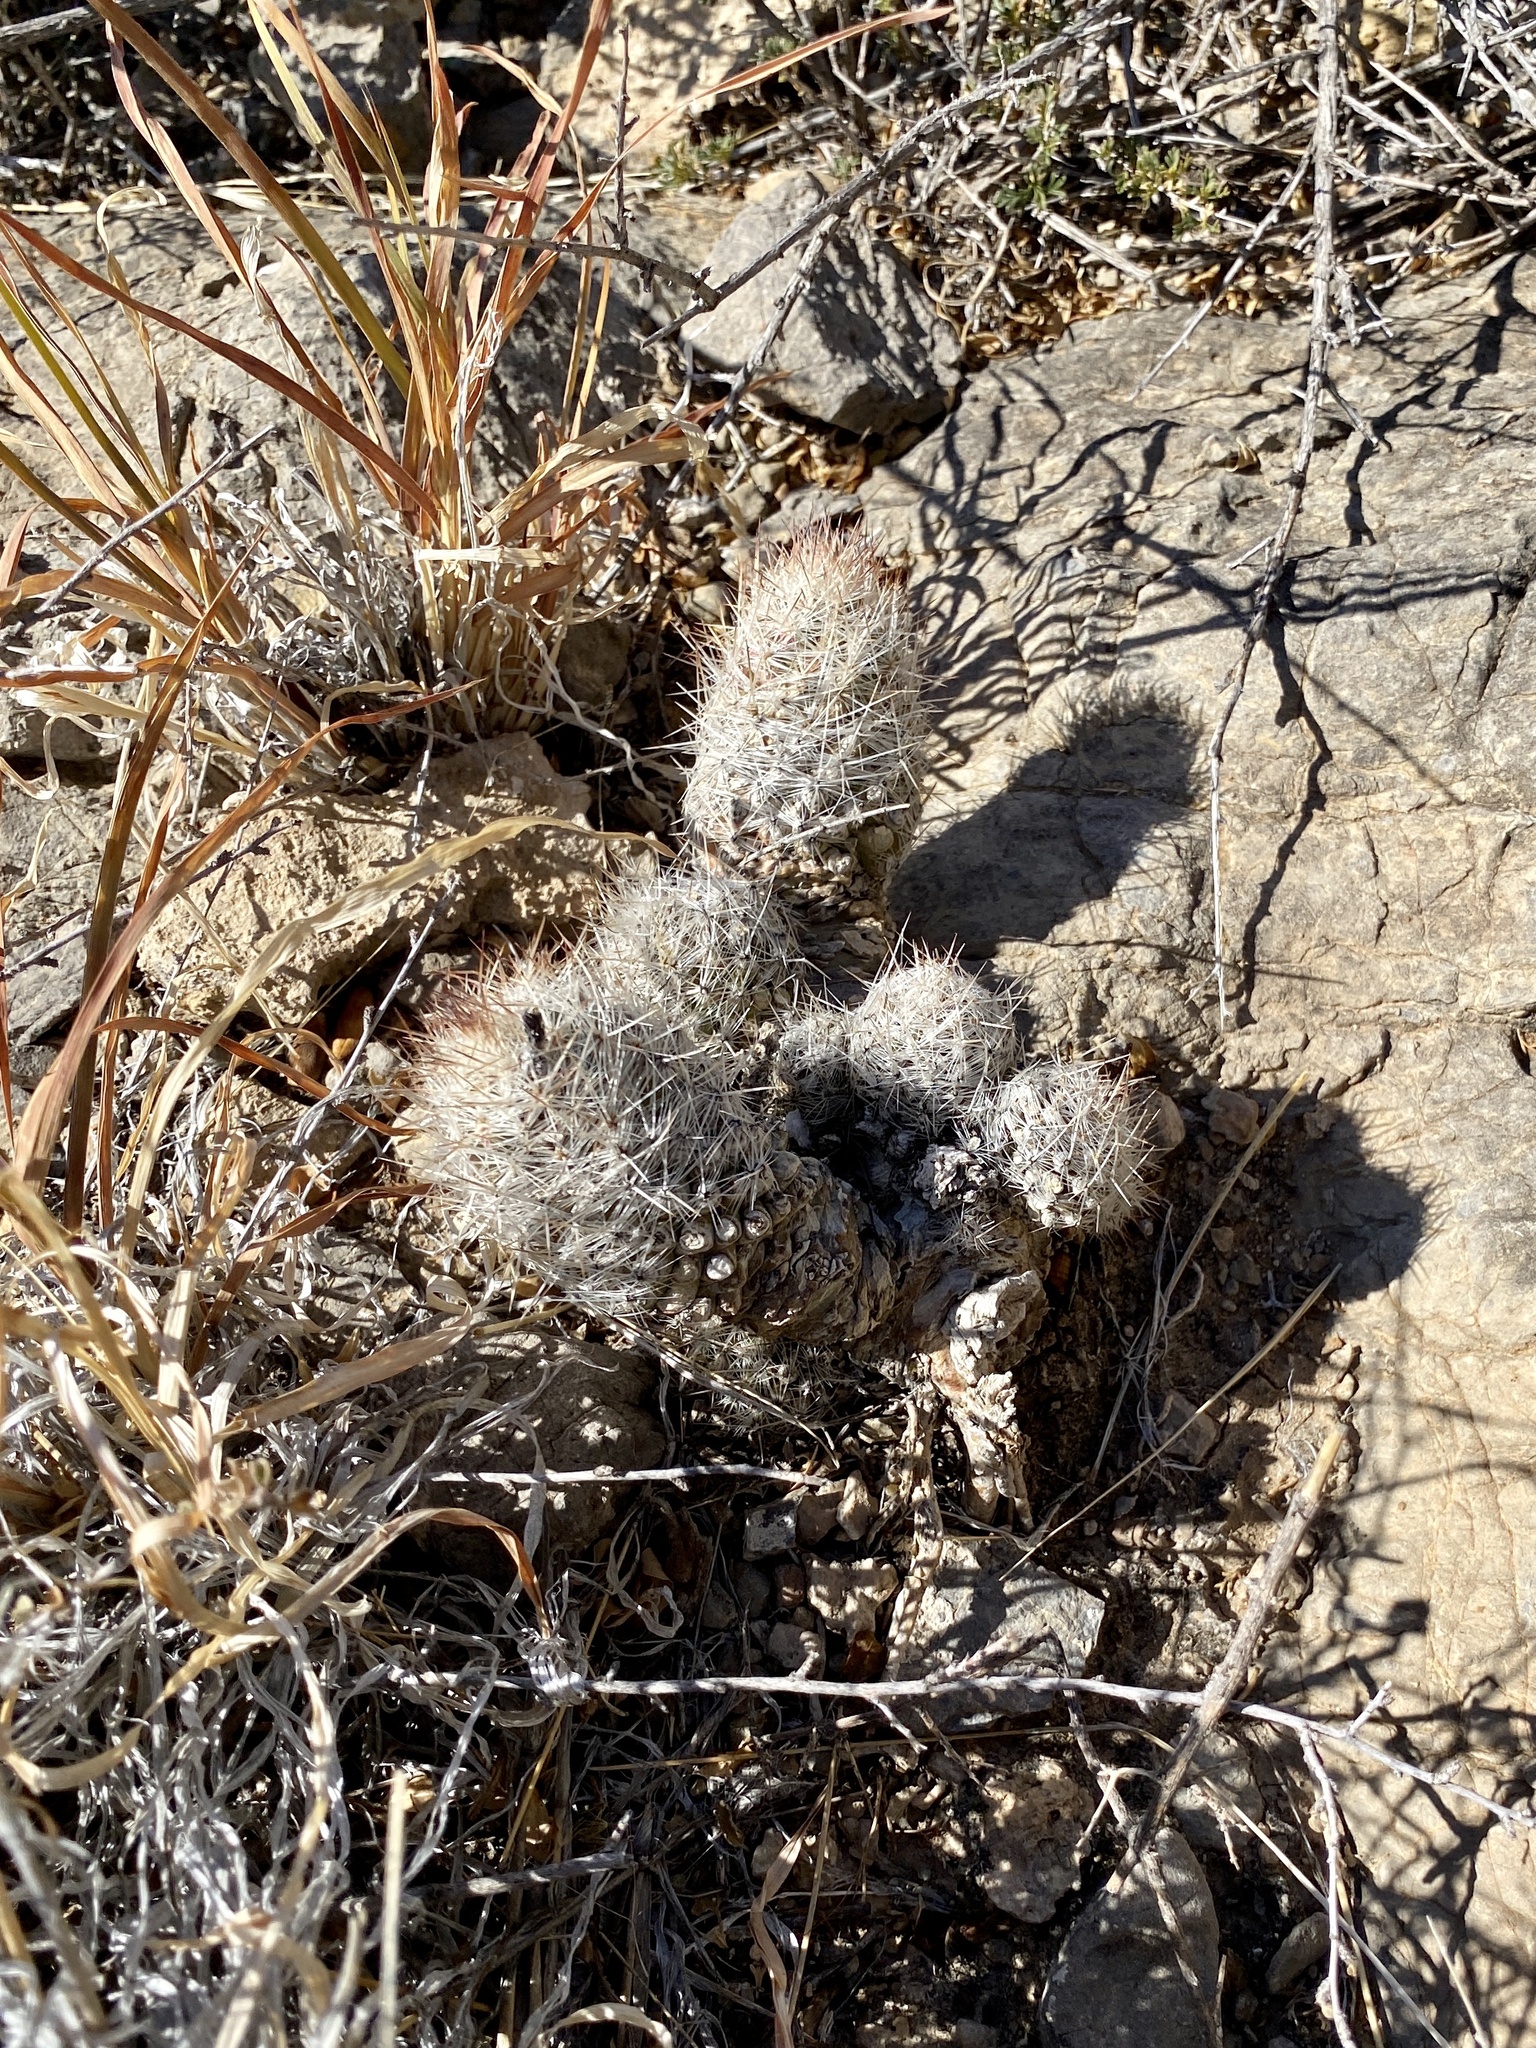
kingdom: Plantae
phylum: Tracheophyta
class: Magnoliopsida
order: Caryophyllales
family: Cactaceae
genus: Pelecyphora
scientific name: Pelecyphora tuberculosa
